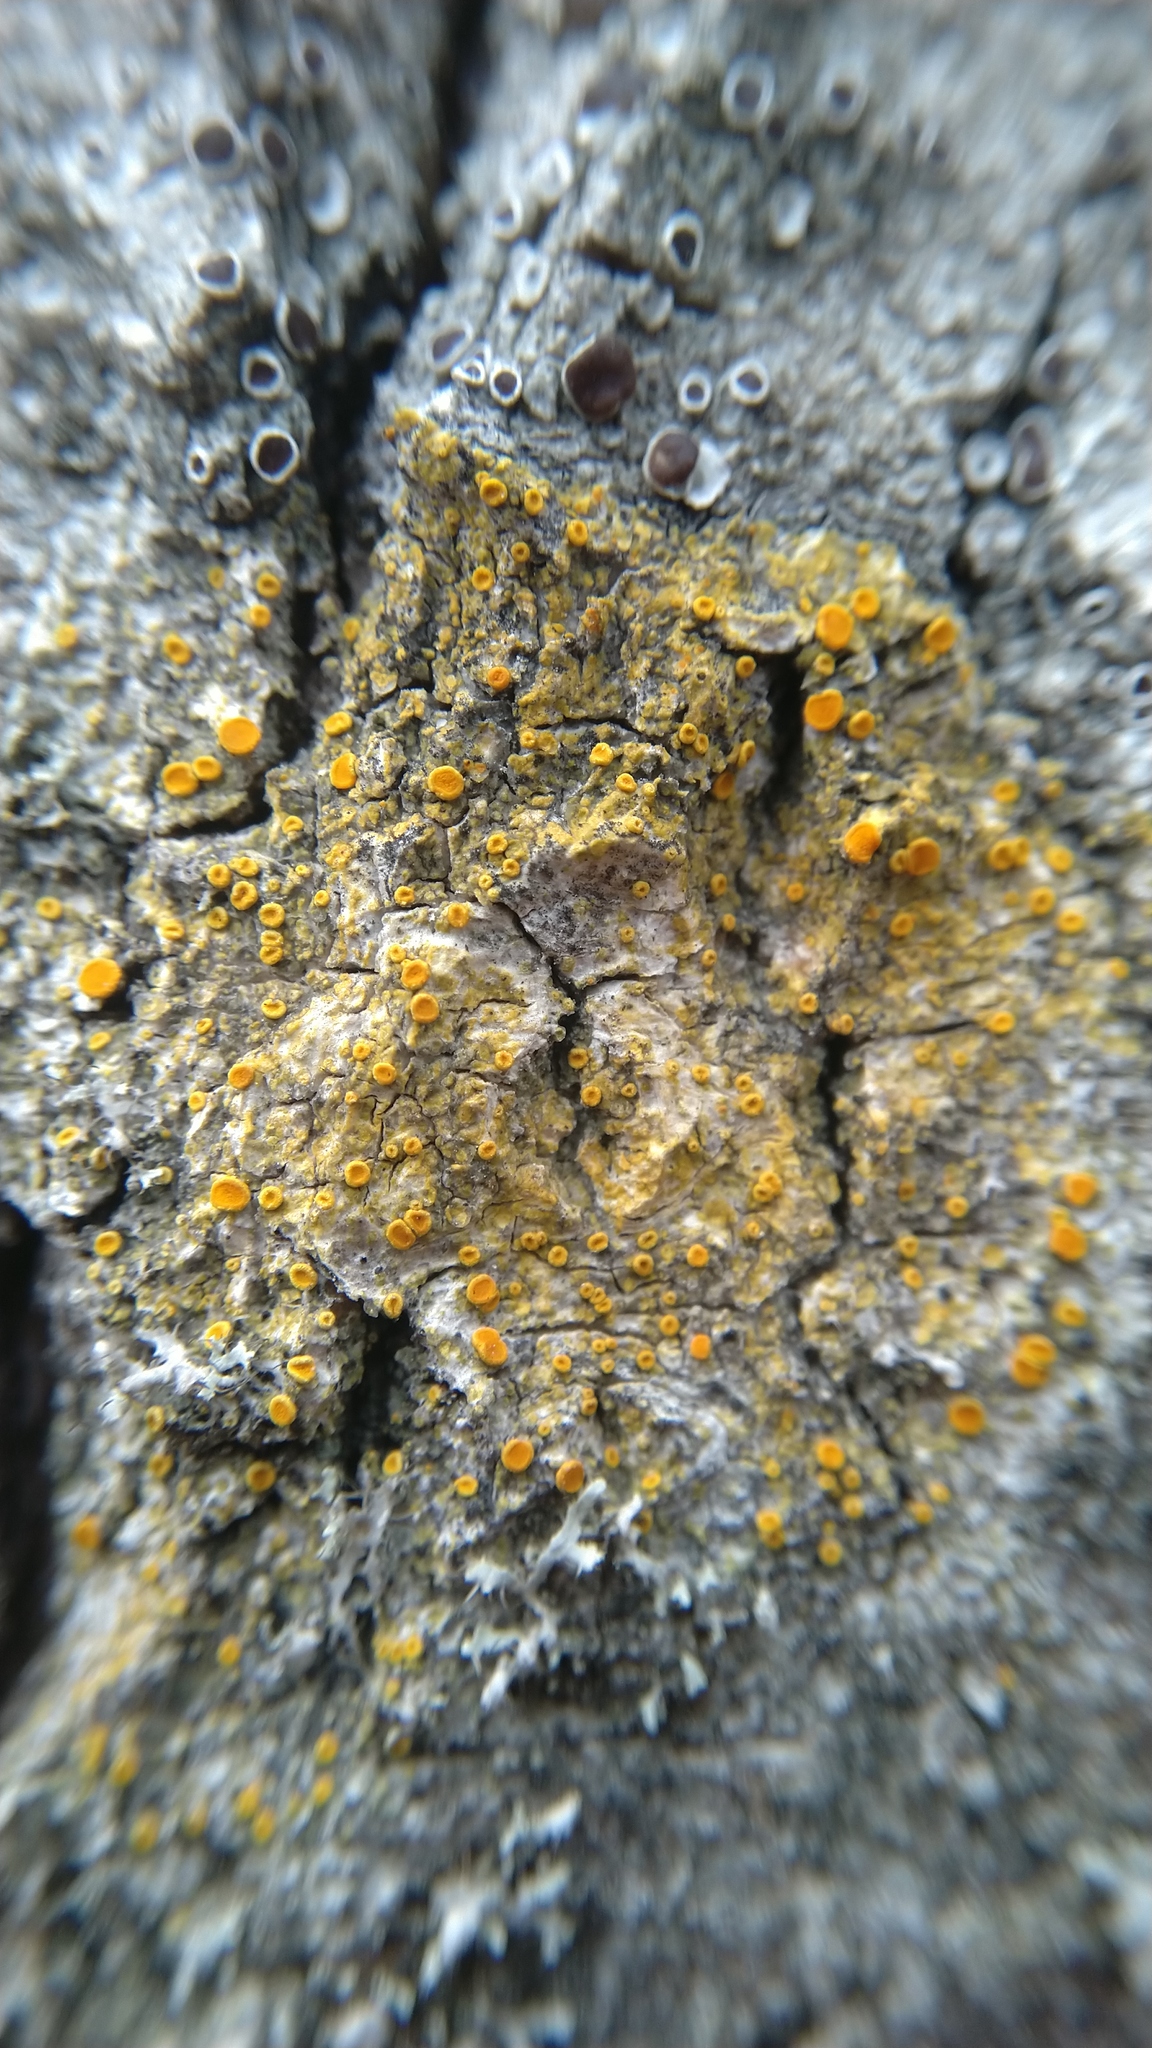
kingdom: Fungi
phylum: Ascomycota
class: Lecanoromycetes
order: Teloschistales
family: Teloschistaceae
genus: Opeltia
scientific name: Opeltia flavorubescens
